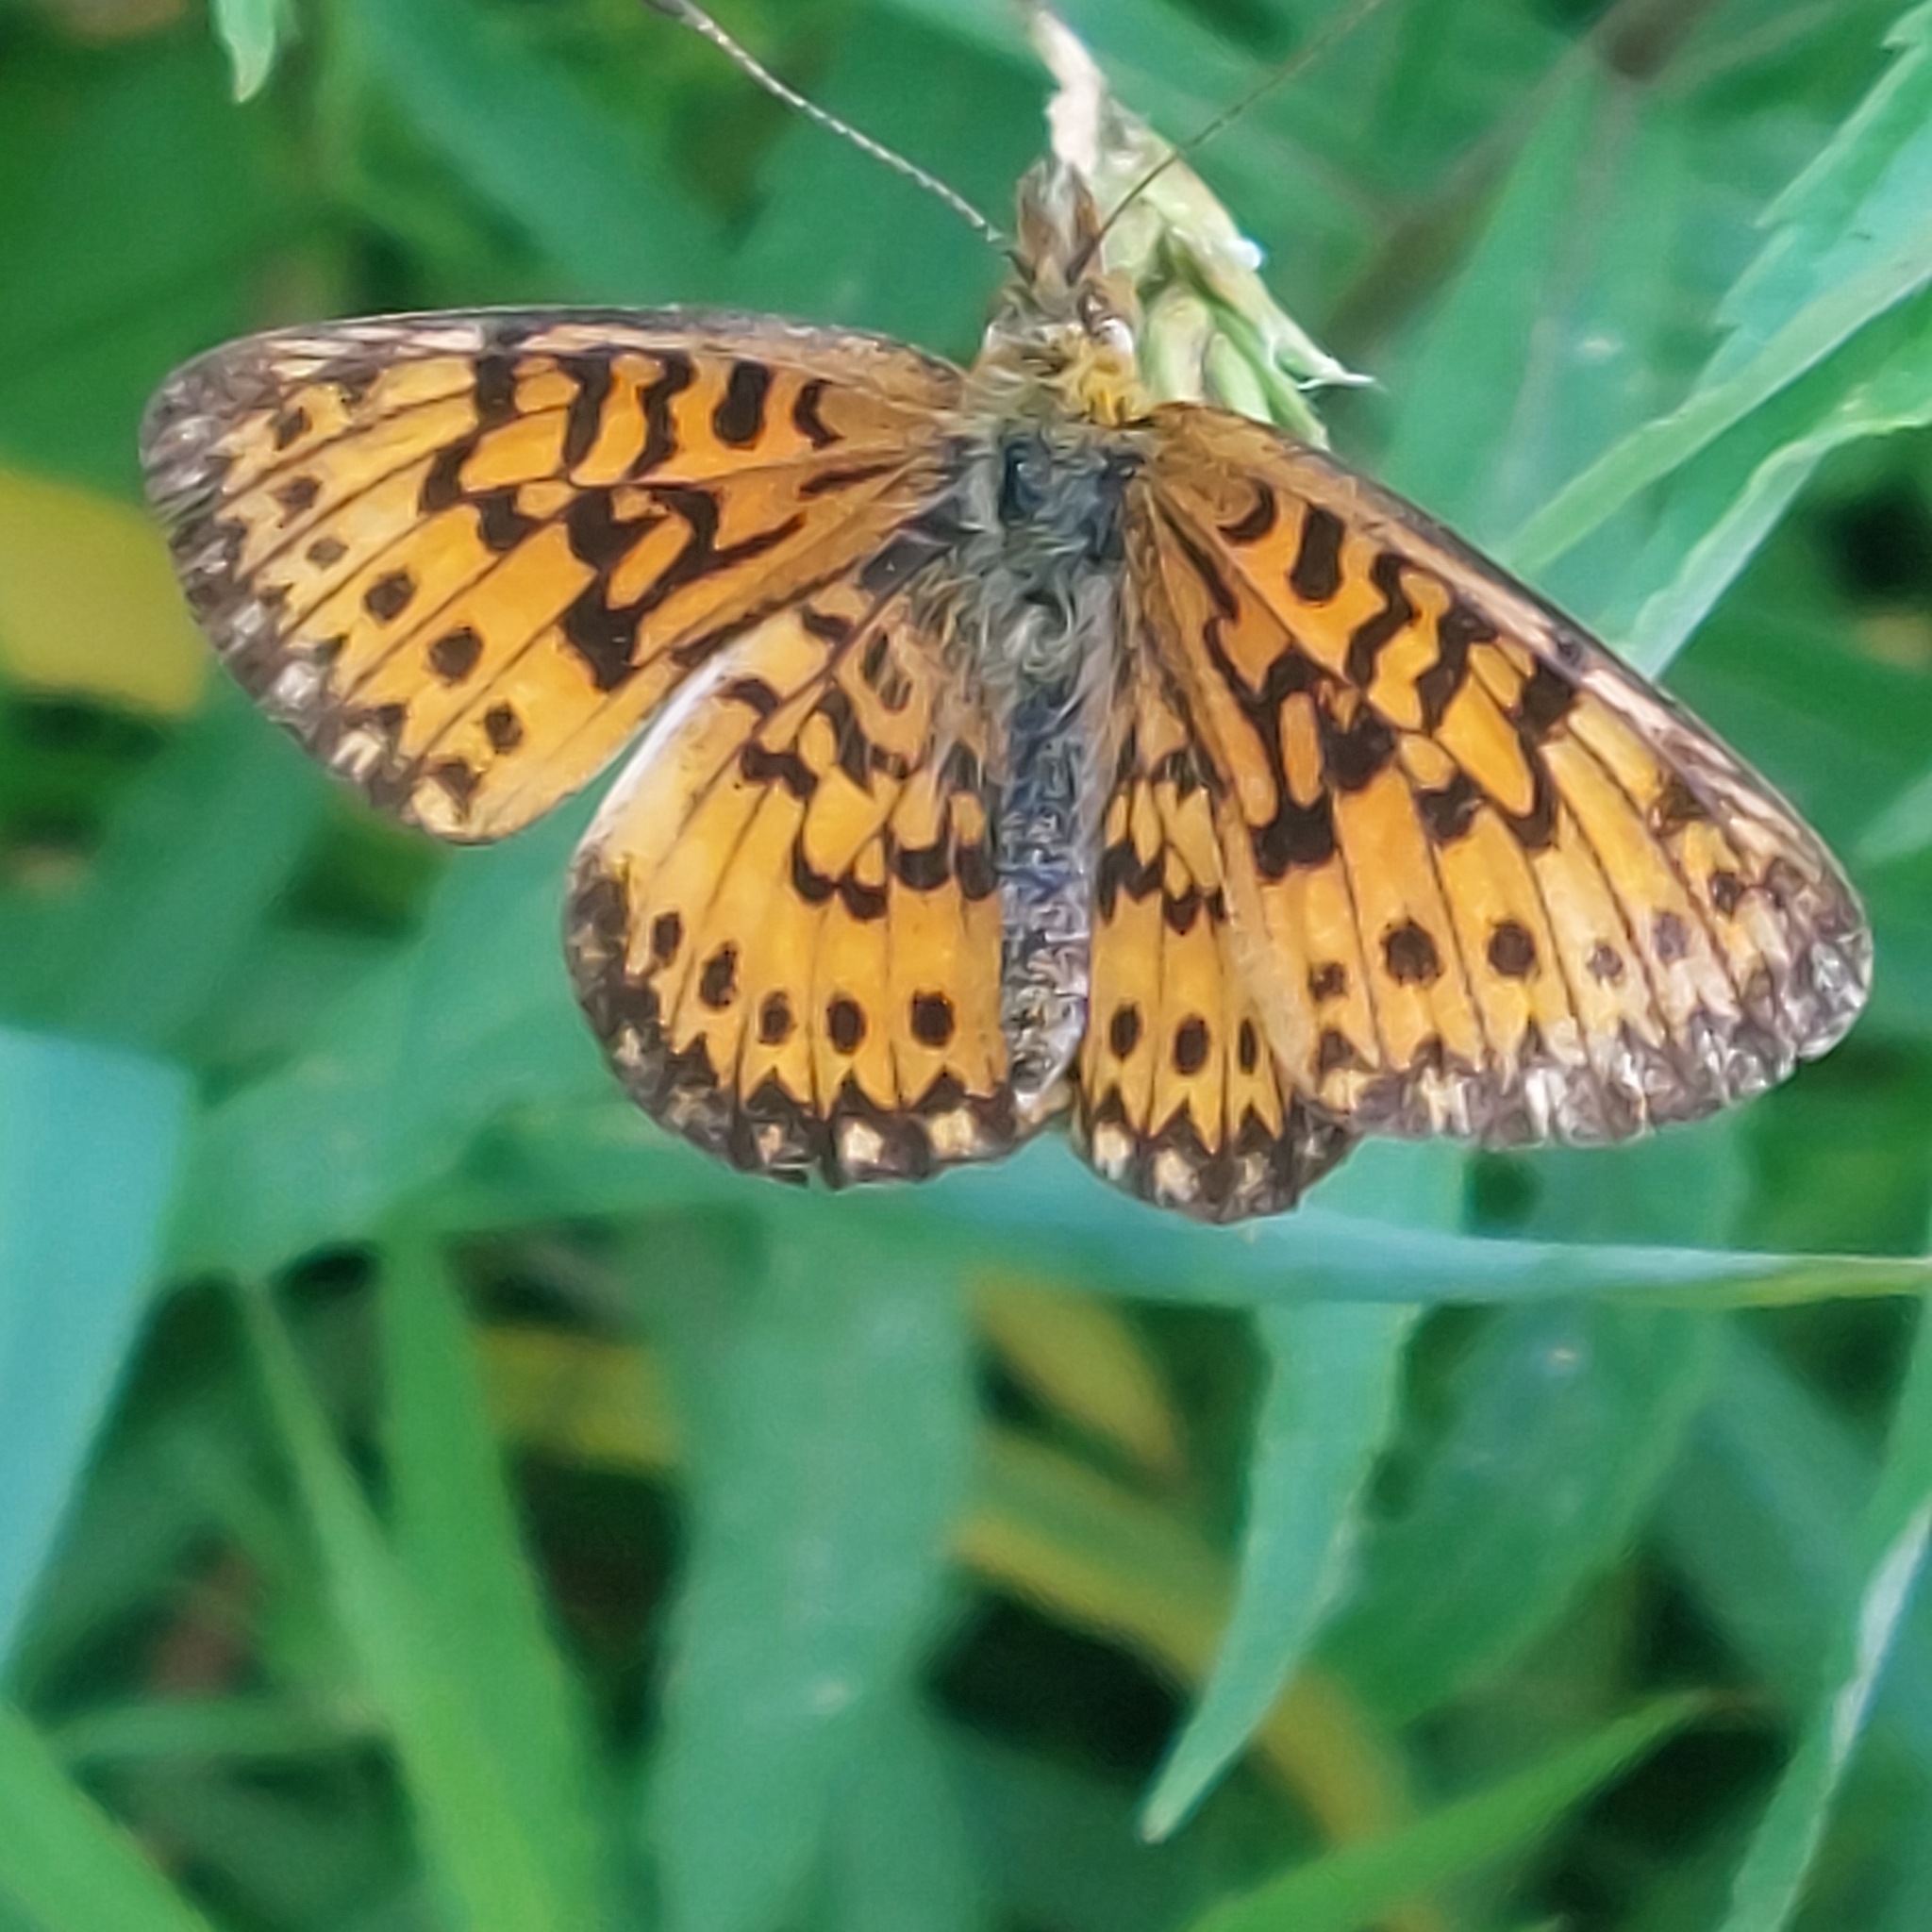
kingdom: Animalia
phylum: Arthropoda
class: Insecta
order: Lepidoptera
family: Nymphalidae
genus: Boloria
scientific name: Boloria
